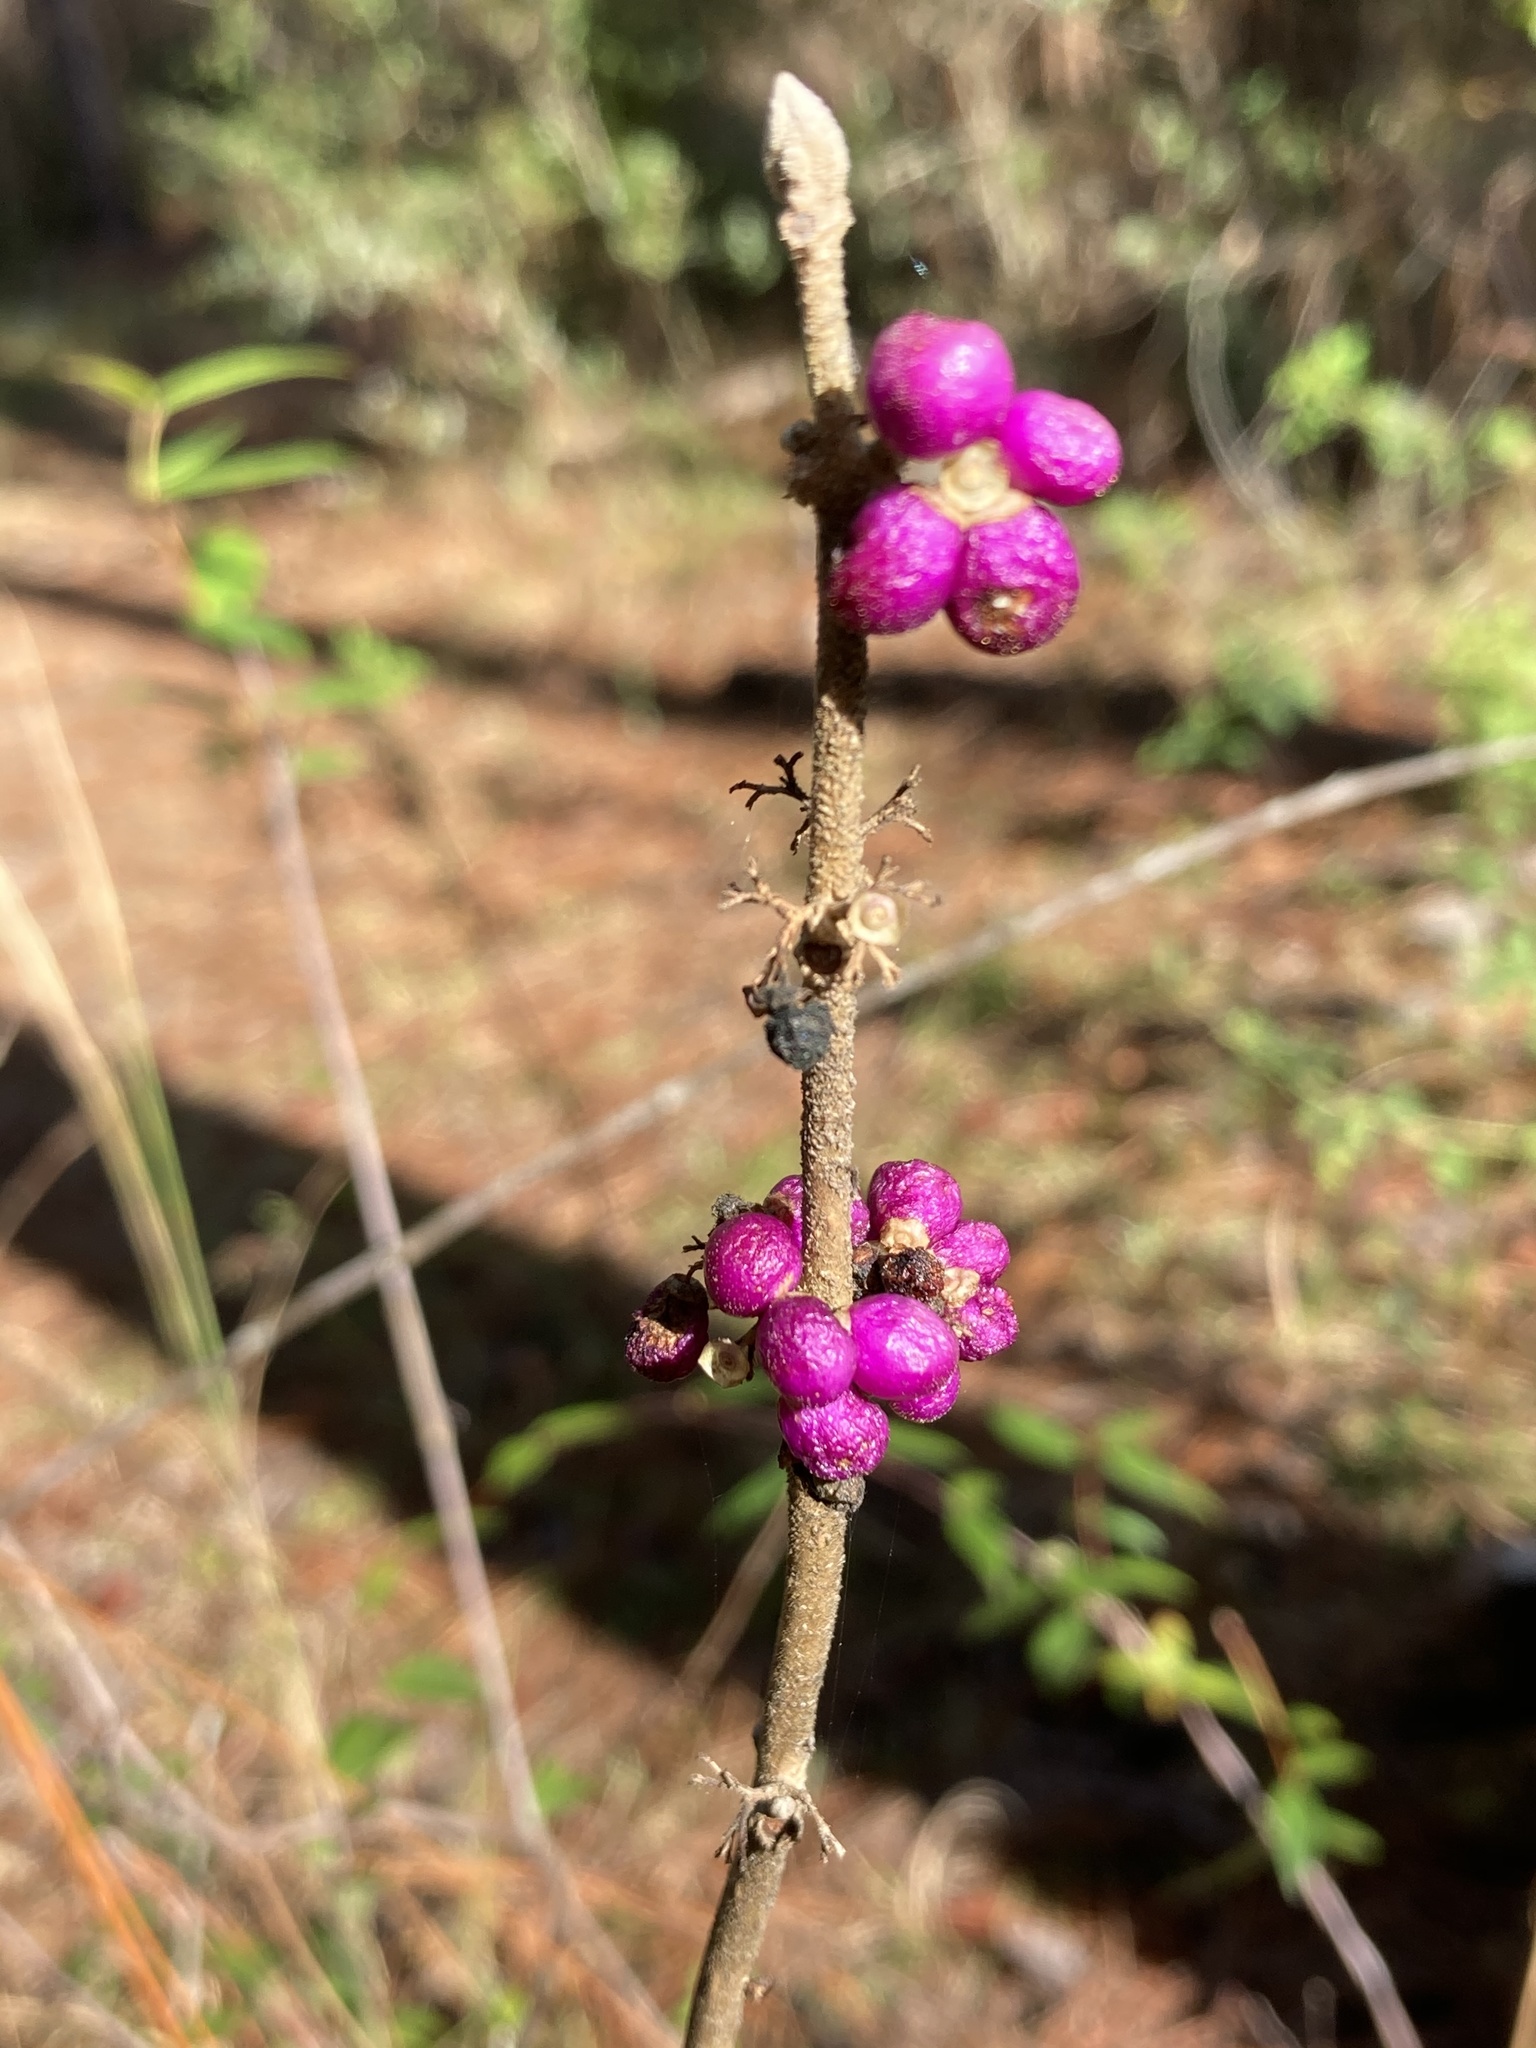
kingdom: Plantae
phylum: Tracheophyta
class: Magnoliopsida
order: Lamiales
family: Lamiaceae
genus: Callicarpa
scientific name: Callicarpa americana
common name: American beautyberry
